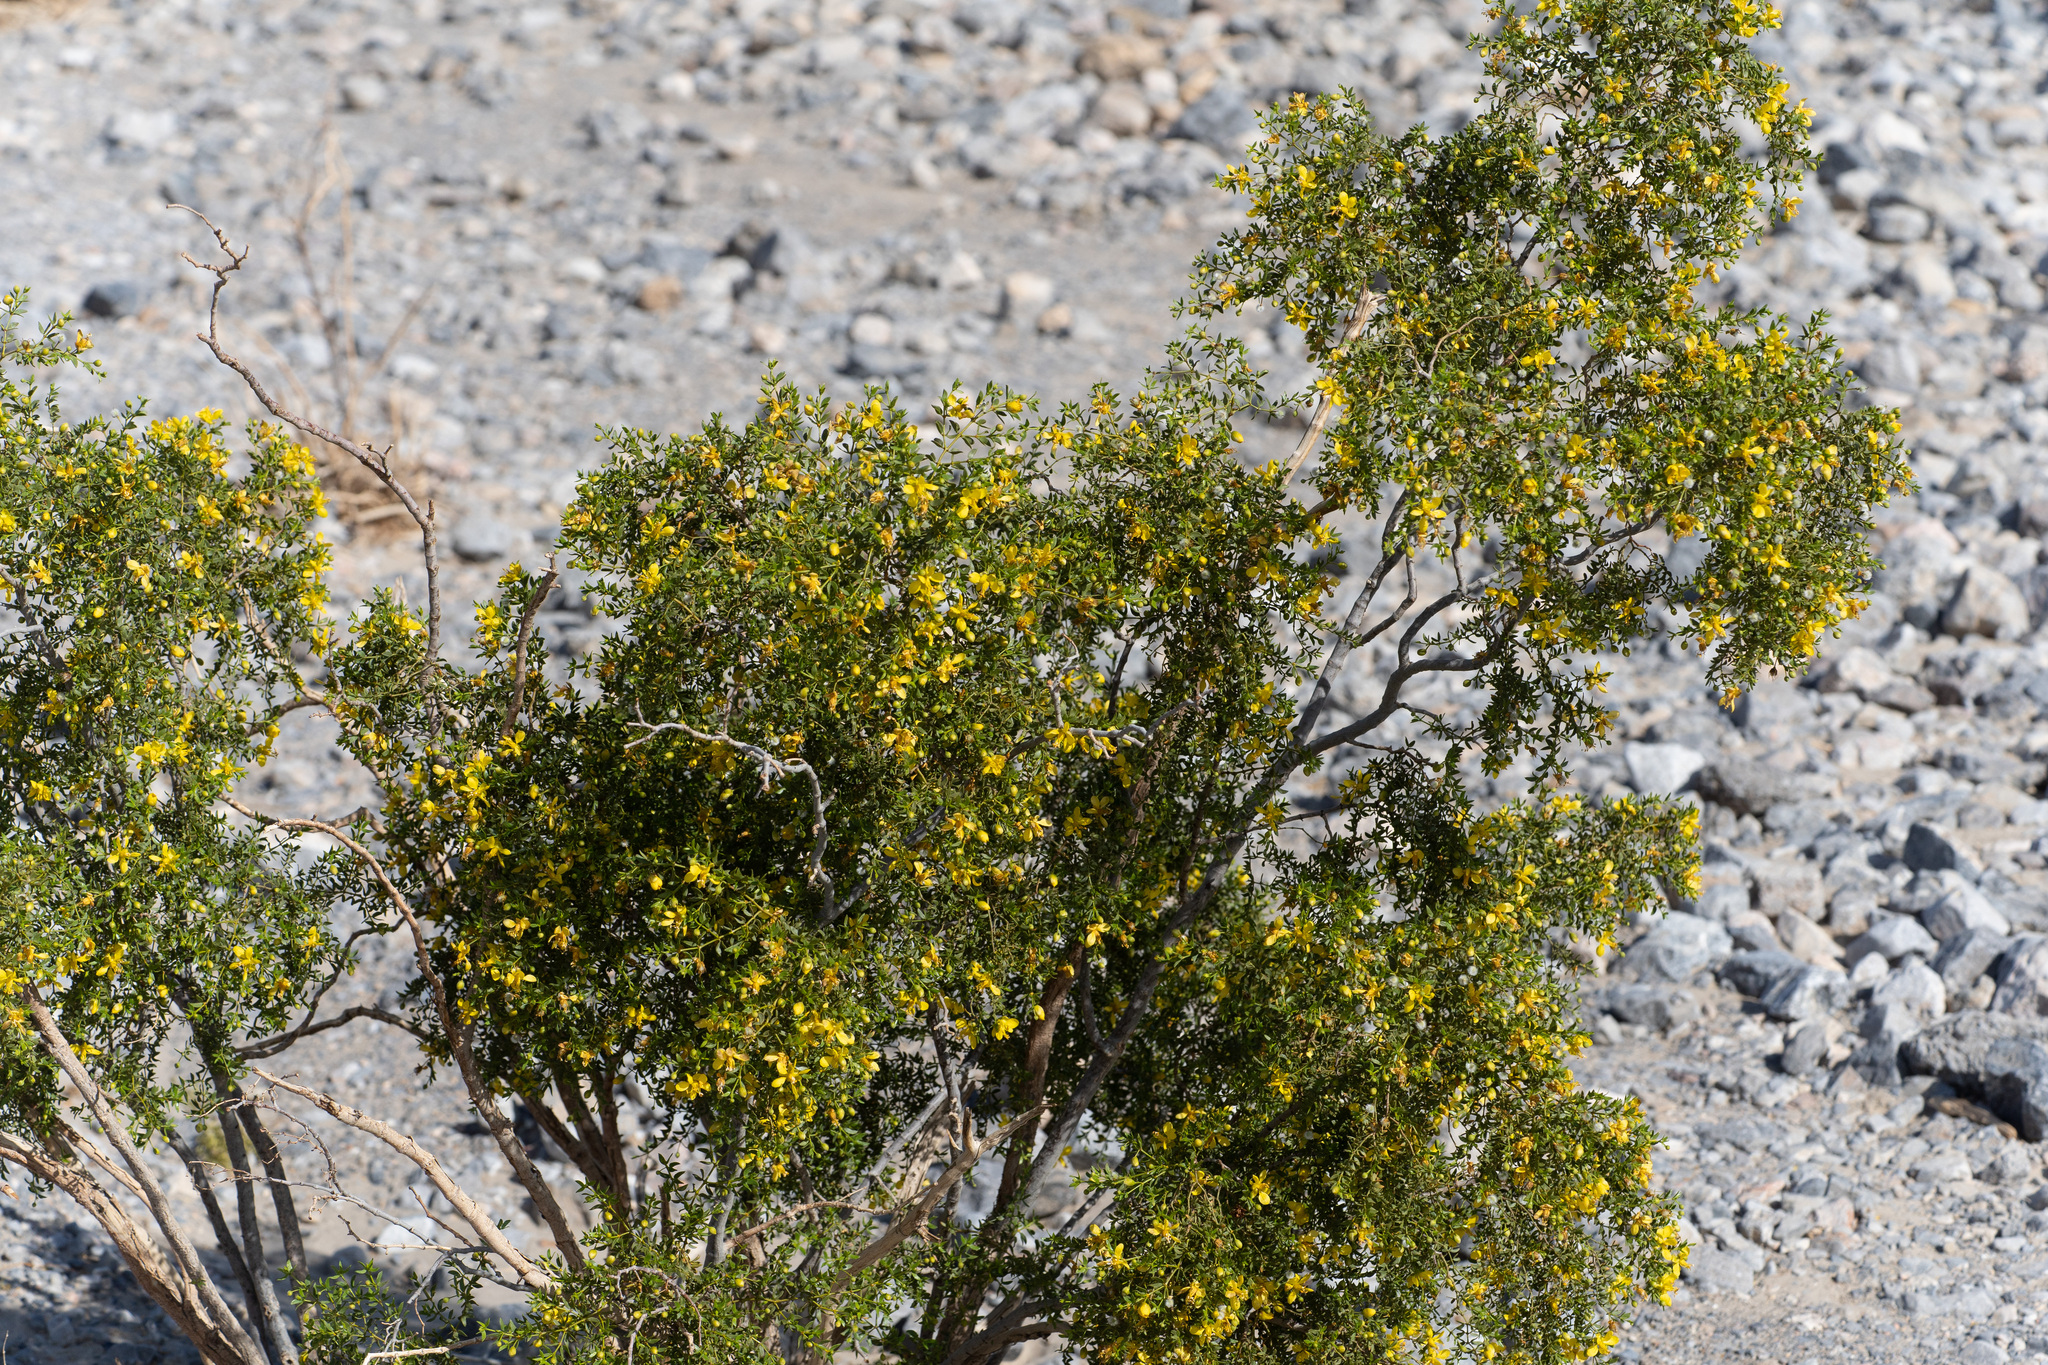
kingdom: Plantae
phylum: Tracheophyta
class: Magnoliopsida
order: Zygophyllales
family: Zygophyllaceae
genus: Larrea
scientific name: Larrea tridentata
